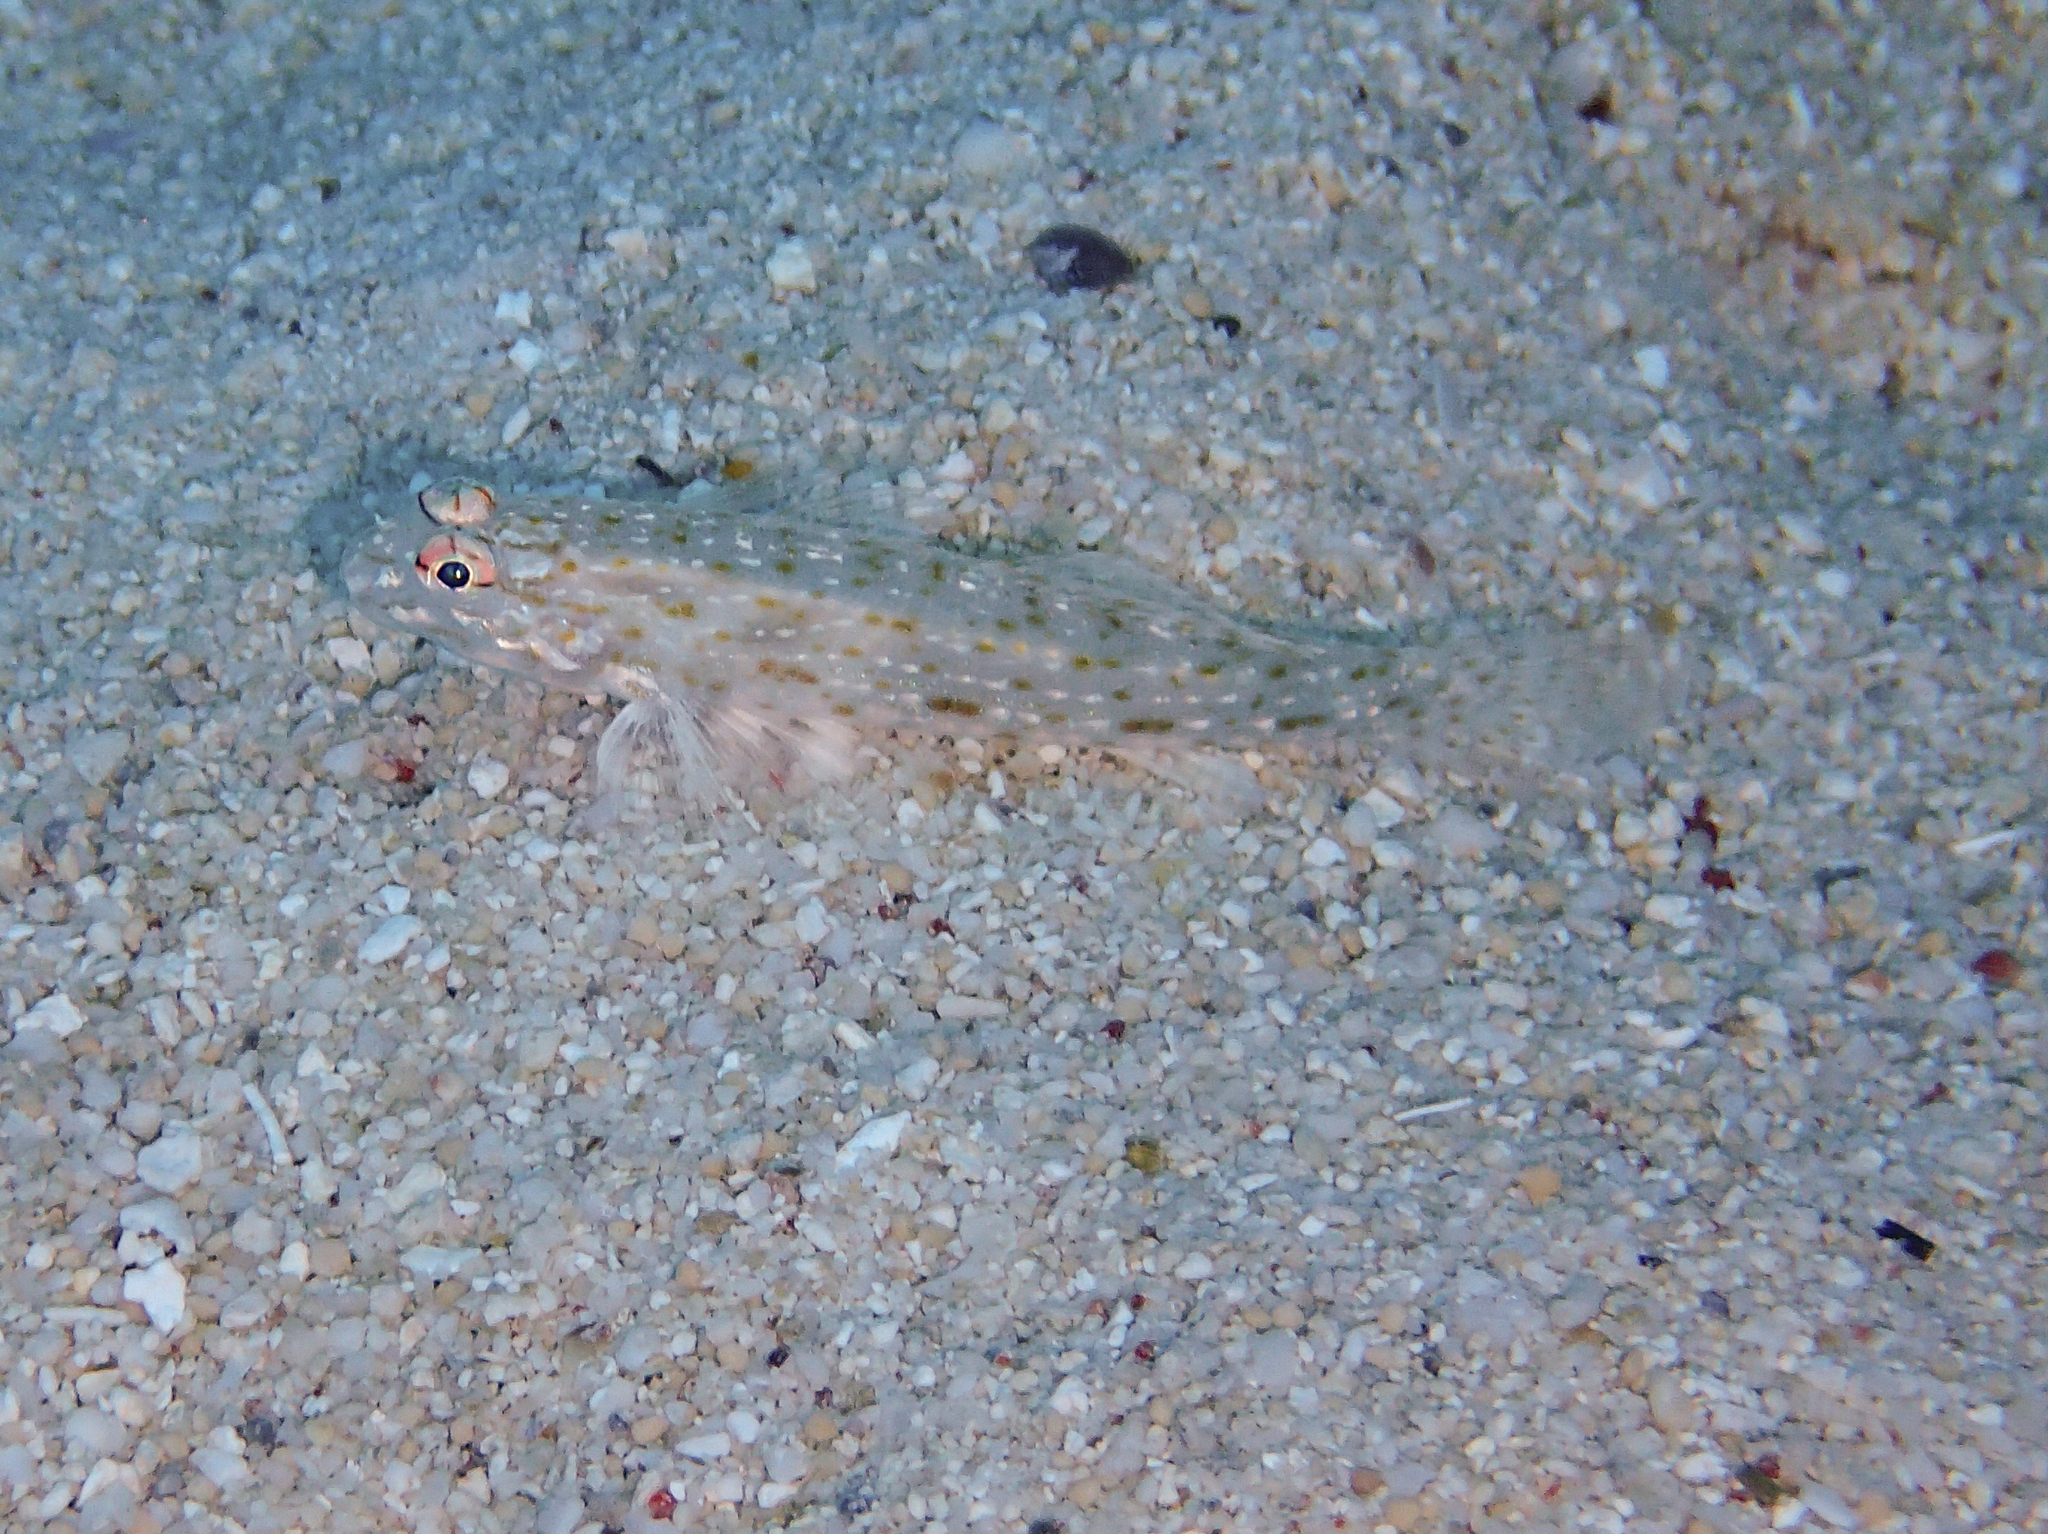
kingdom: Animalia
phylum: Chordata
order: Perciformes
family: Gobiidae
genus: Istigobius
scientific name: Istigobius rigilius
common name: Rigilius goby
